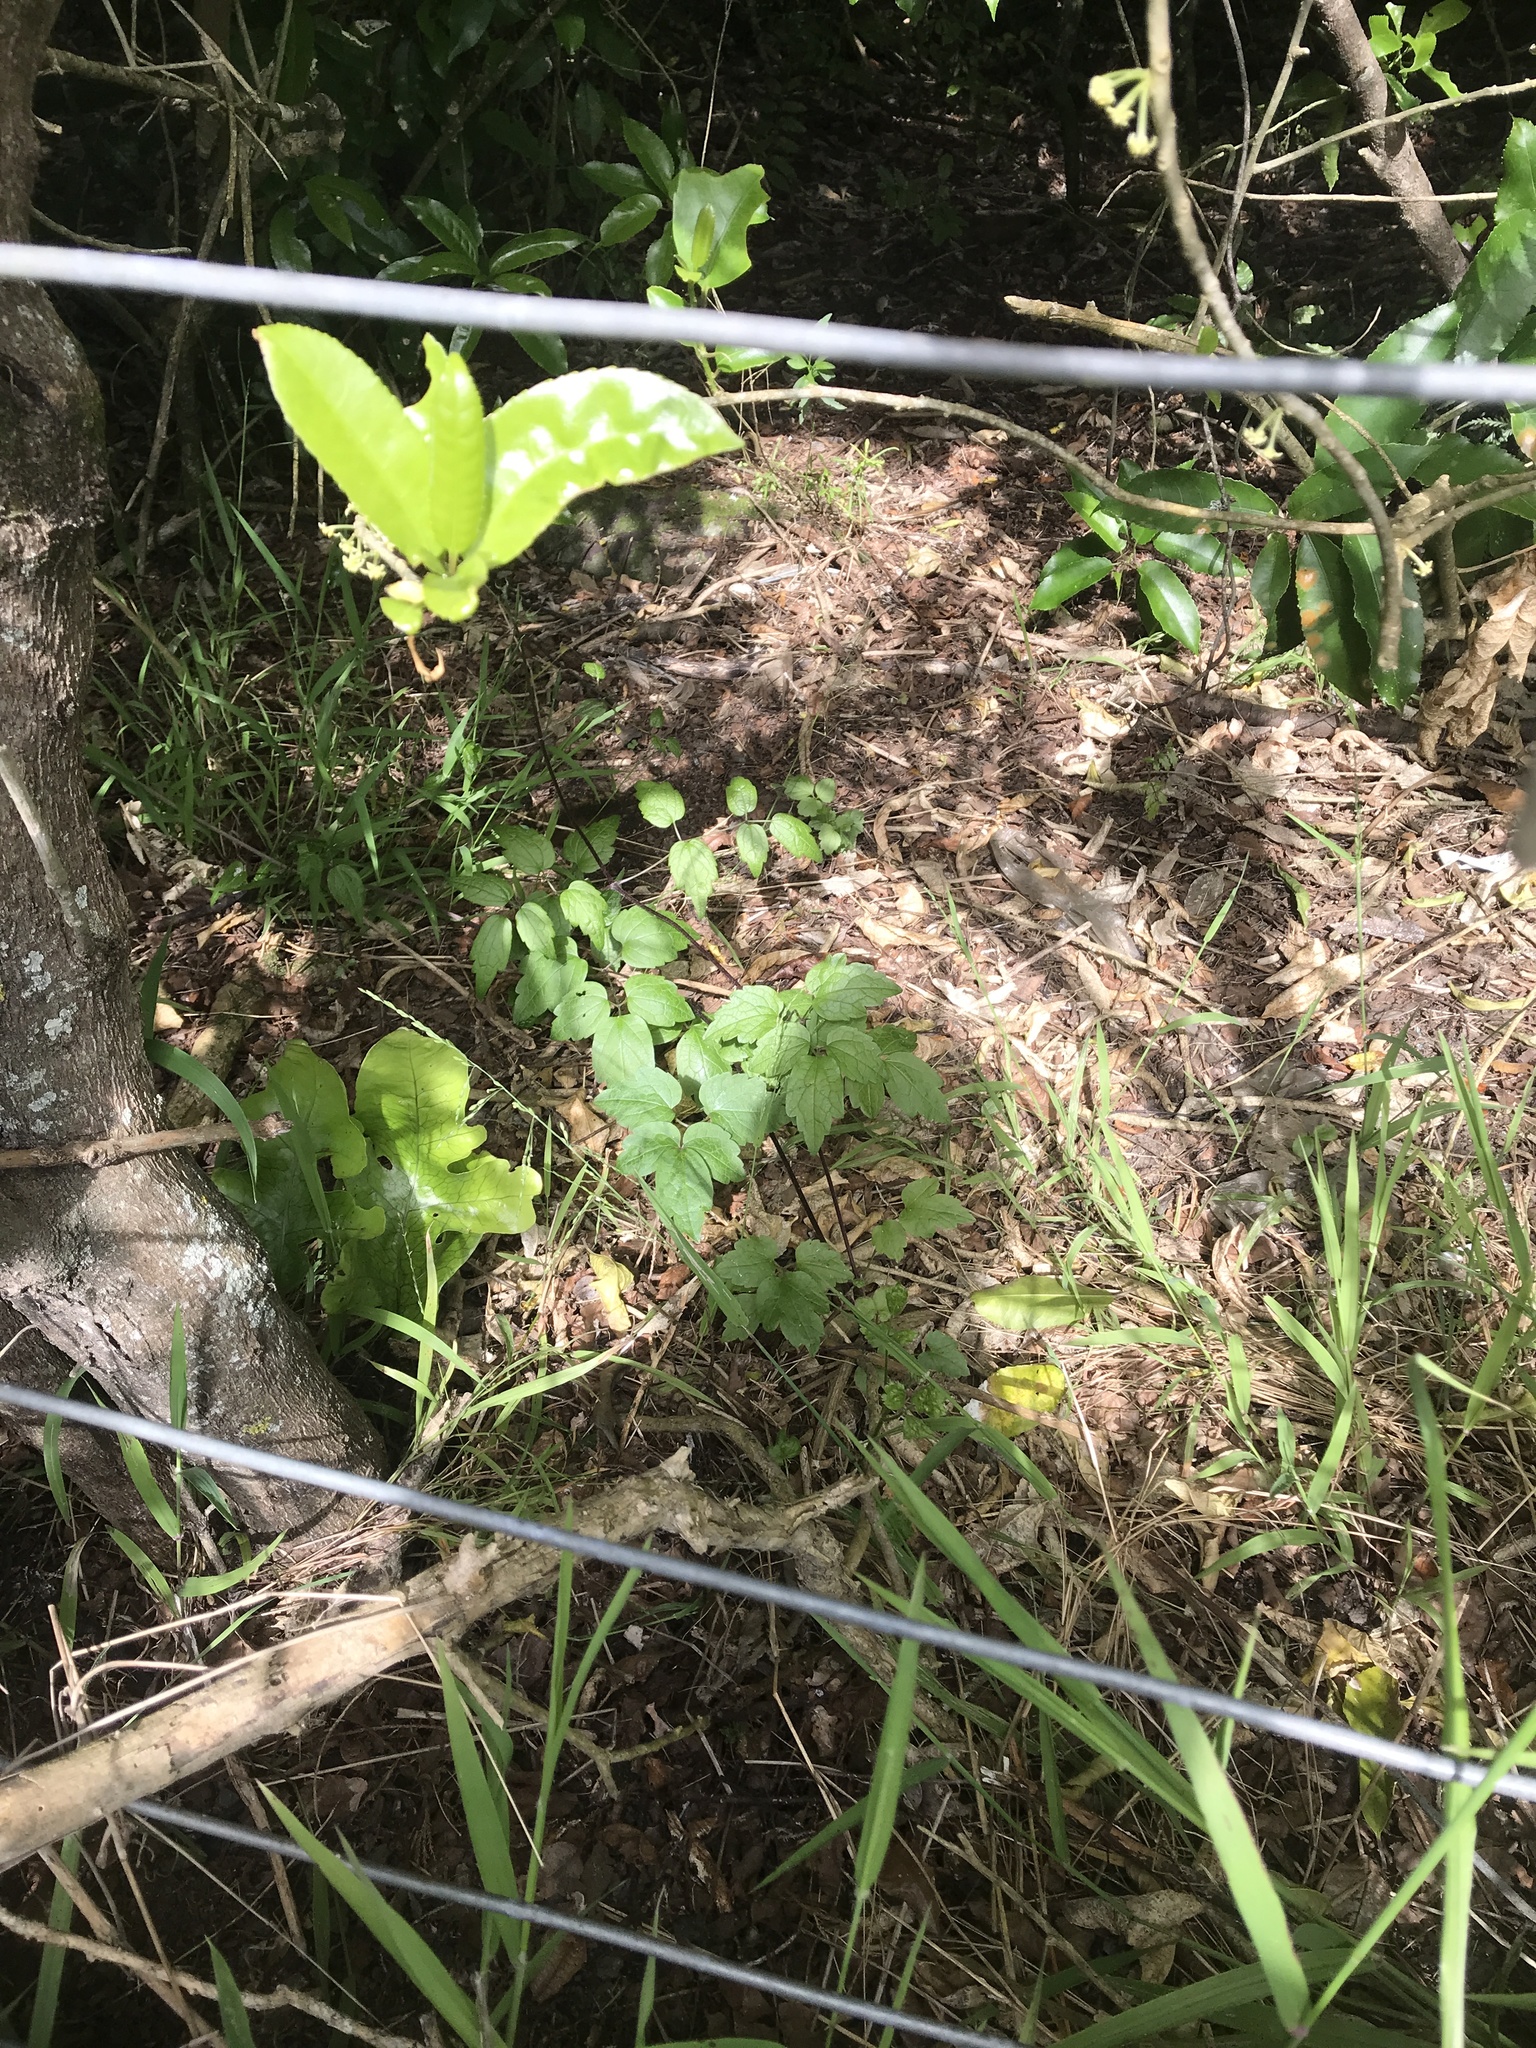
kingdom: Plantae
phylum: Tracheophyta
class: Magnoliopsida
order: Ranunculales
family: Ranunculaceae
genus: Clematis
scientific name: Clematis vitalba
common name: Evergreen clematis
